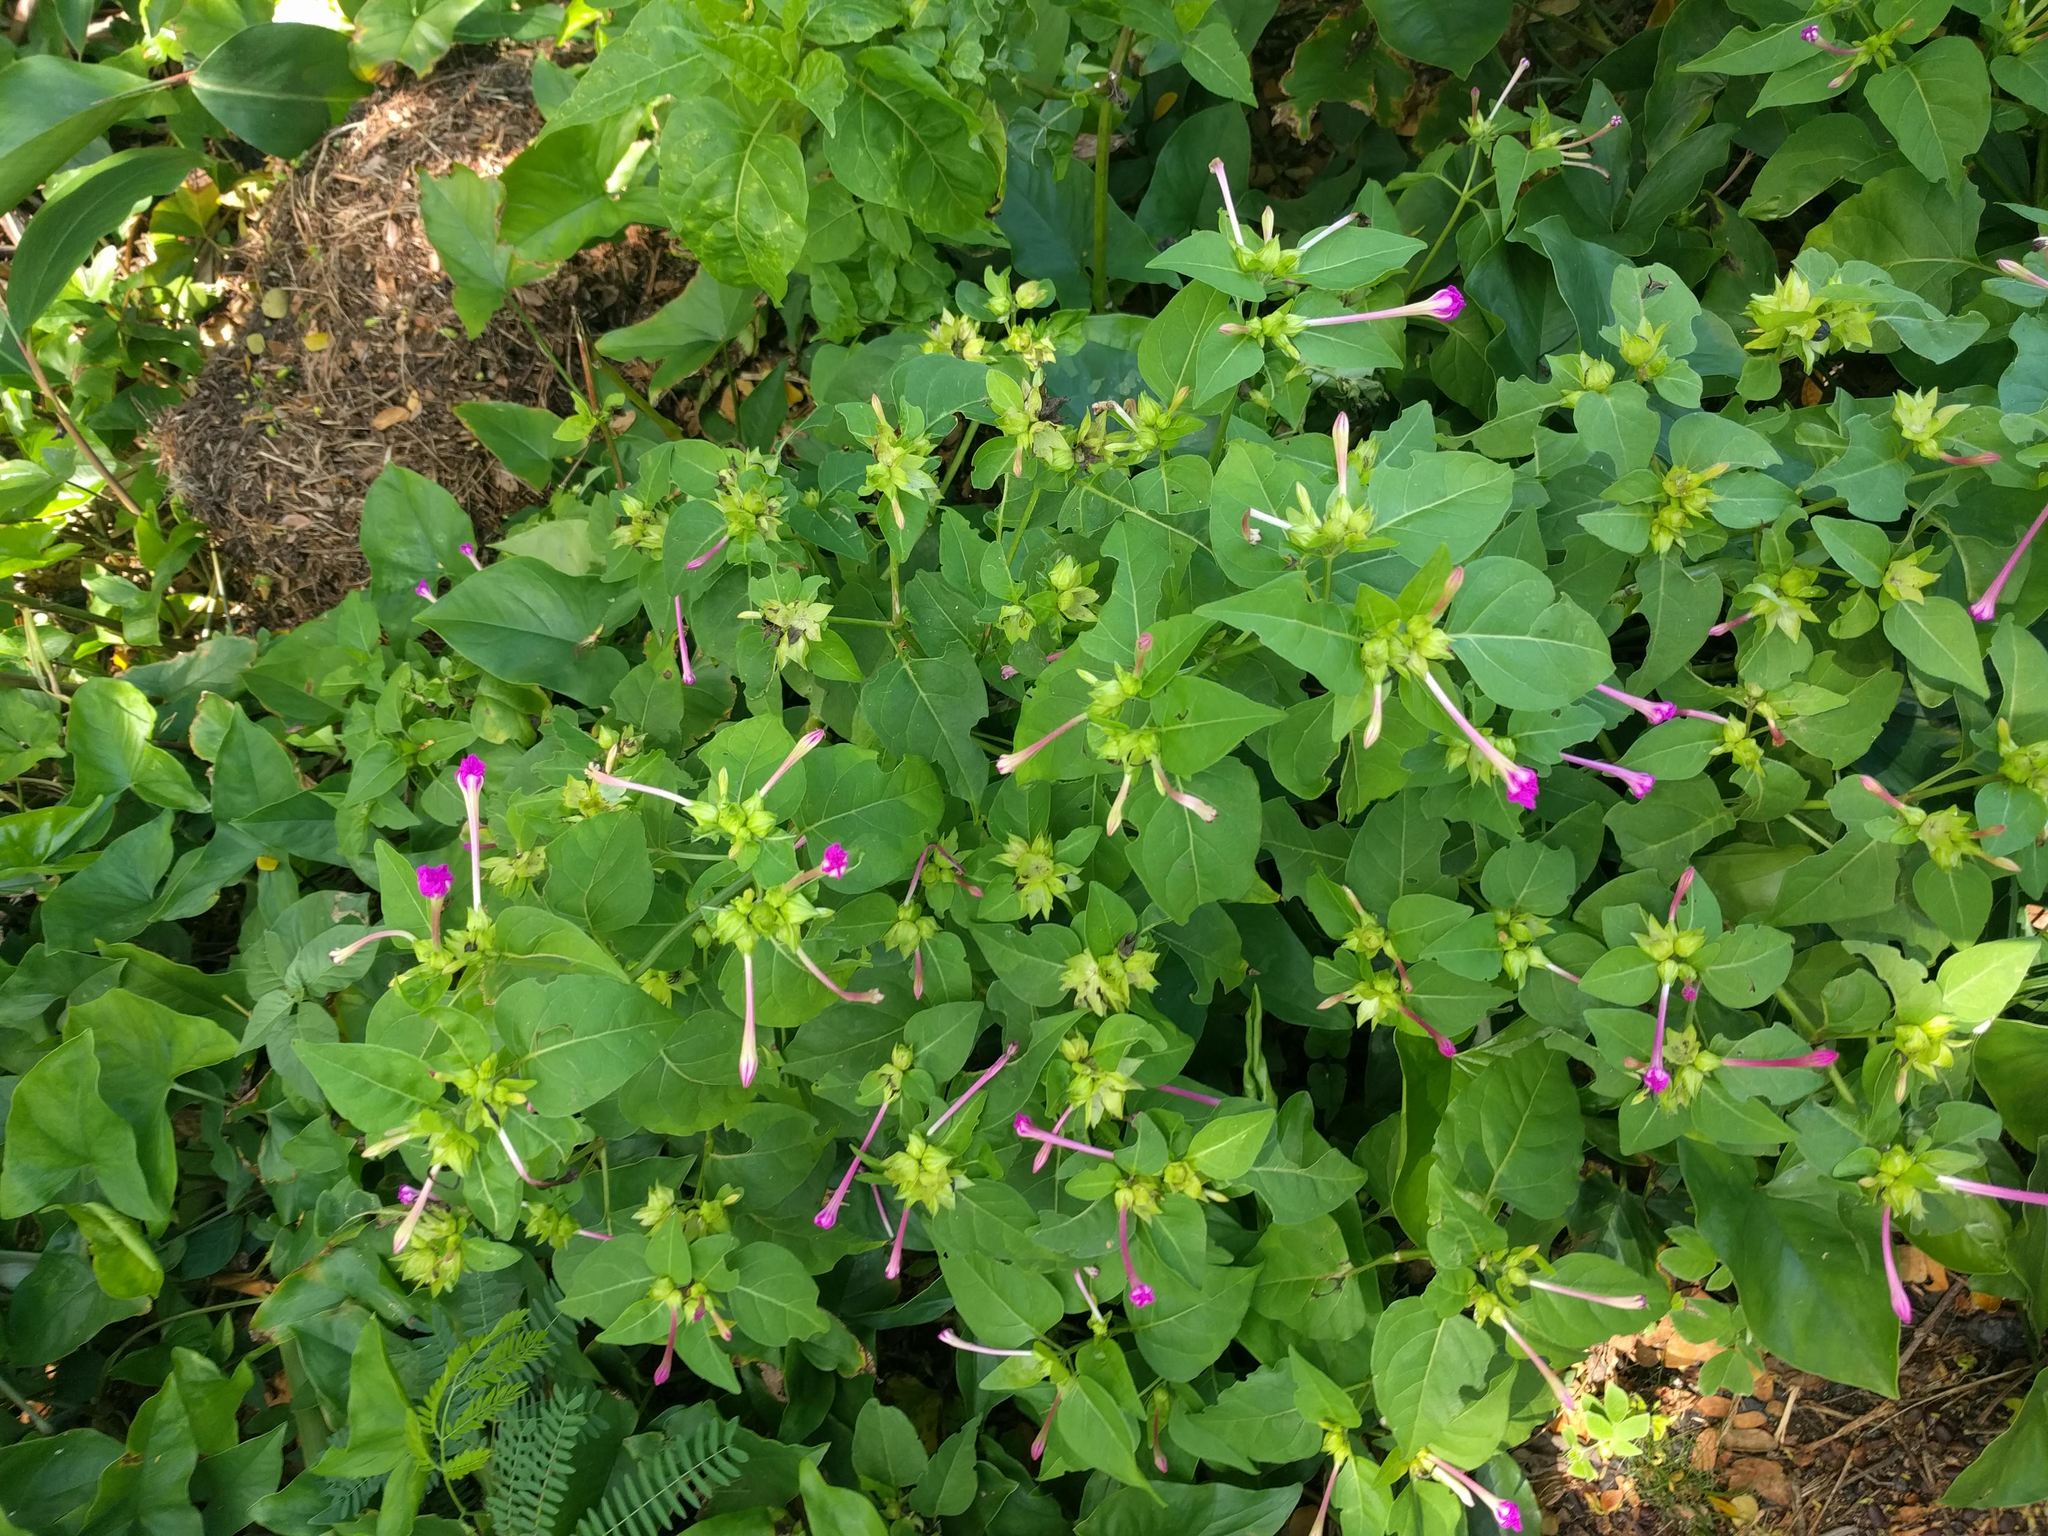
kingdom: Plantae
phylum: Tracheophyta
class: Magnoliopsida
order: Caryophyllales
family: Nyctaginaceae
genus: Mirabilis
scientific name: Mirabilis jalapa
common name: Marvel-of-peru
